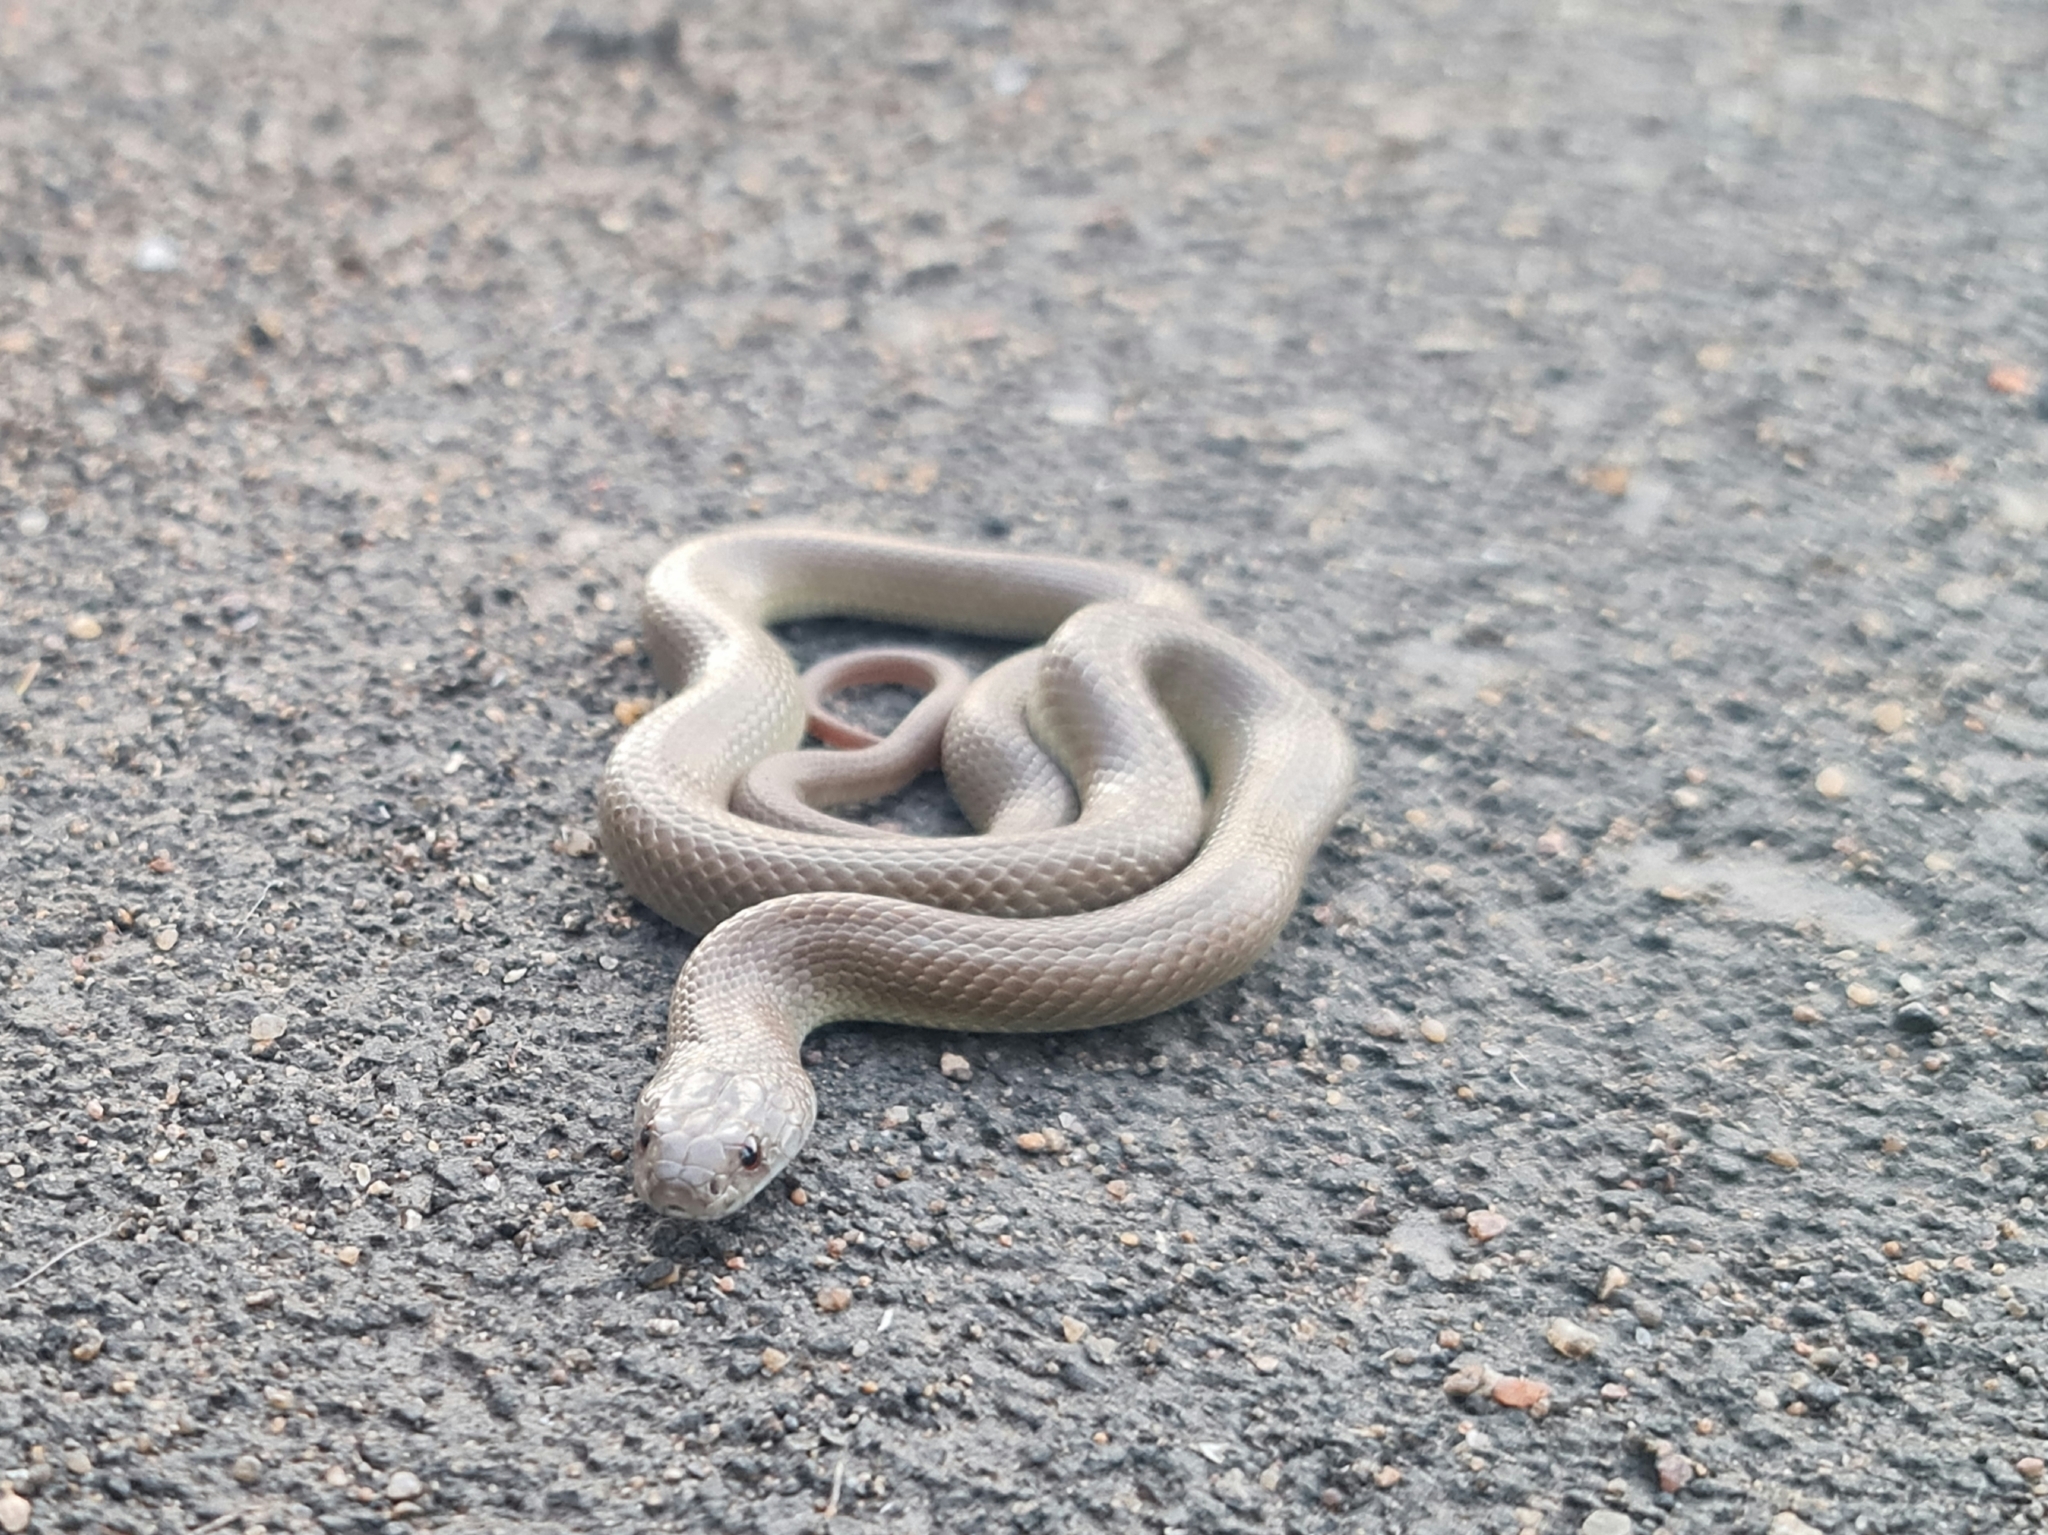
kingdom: Animalia
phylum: Chordata
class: Squamata
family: Elapidae
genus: Pseudechis
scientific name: Pseudechis weigeli
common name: Pygmy mulga snake
